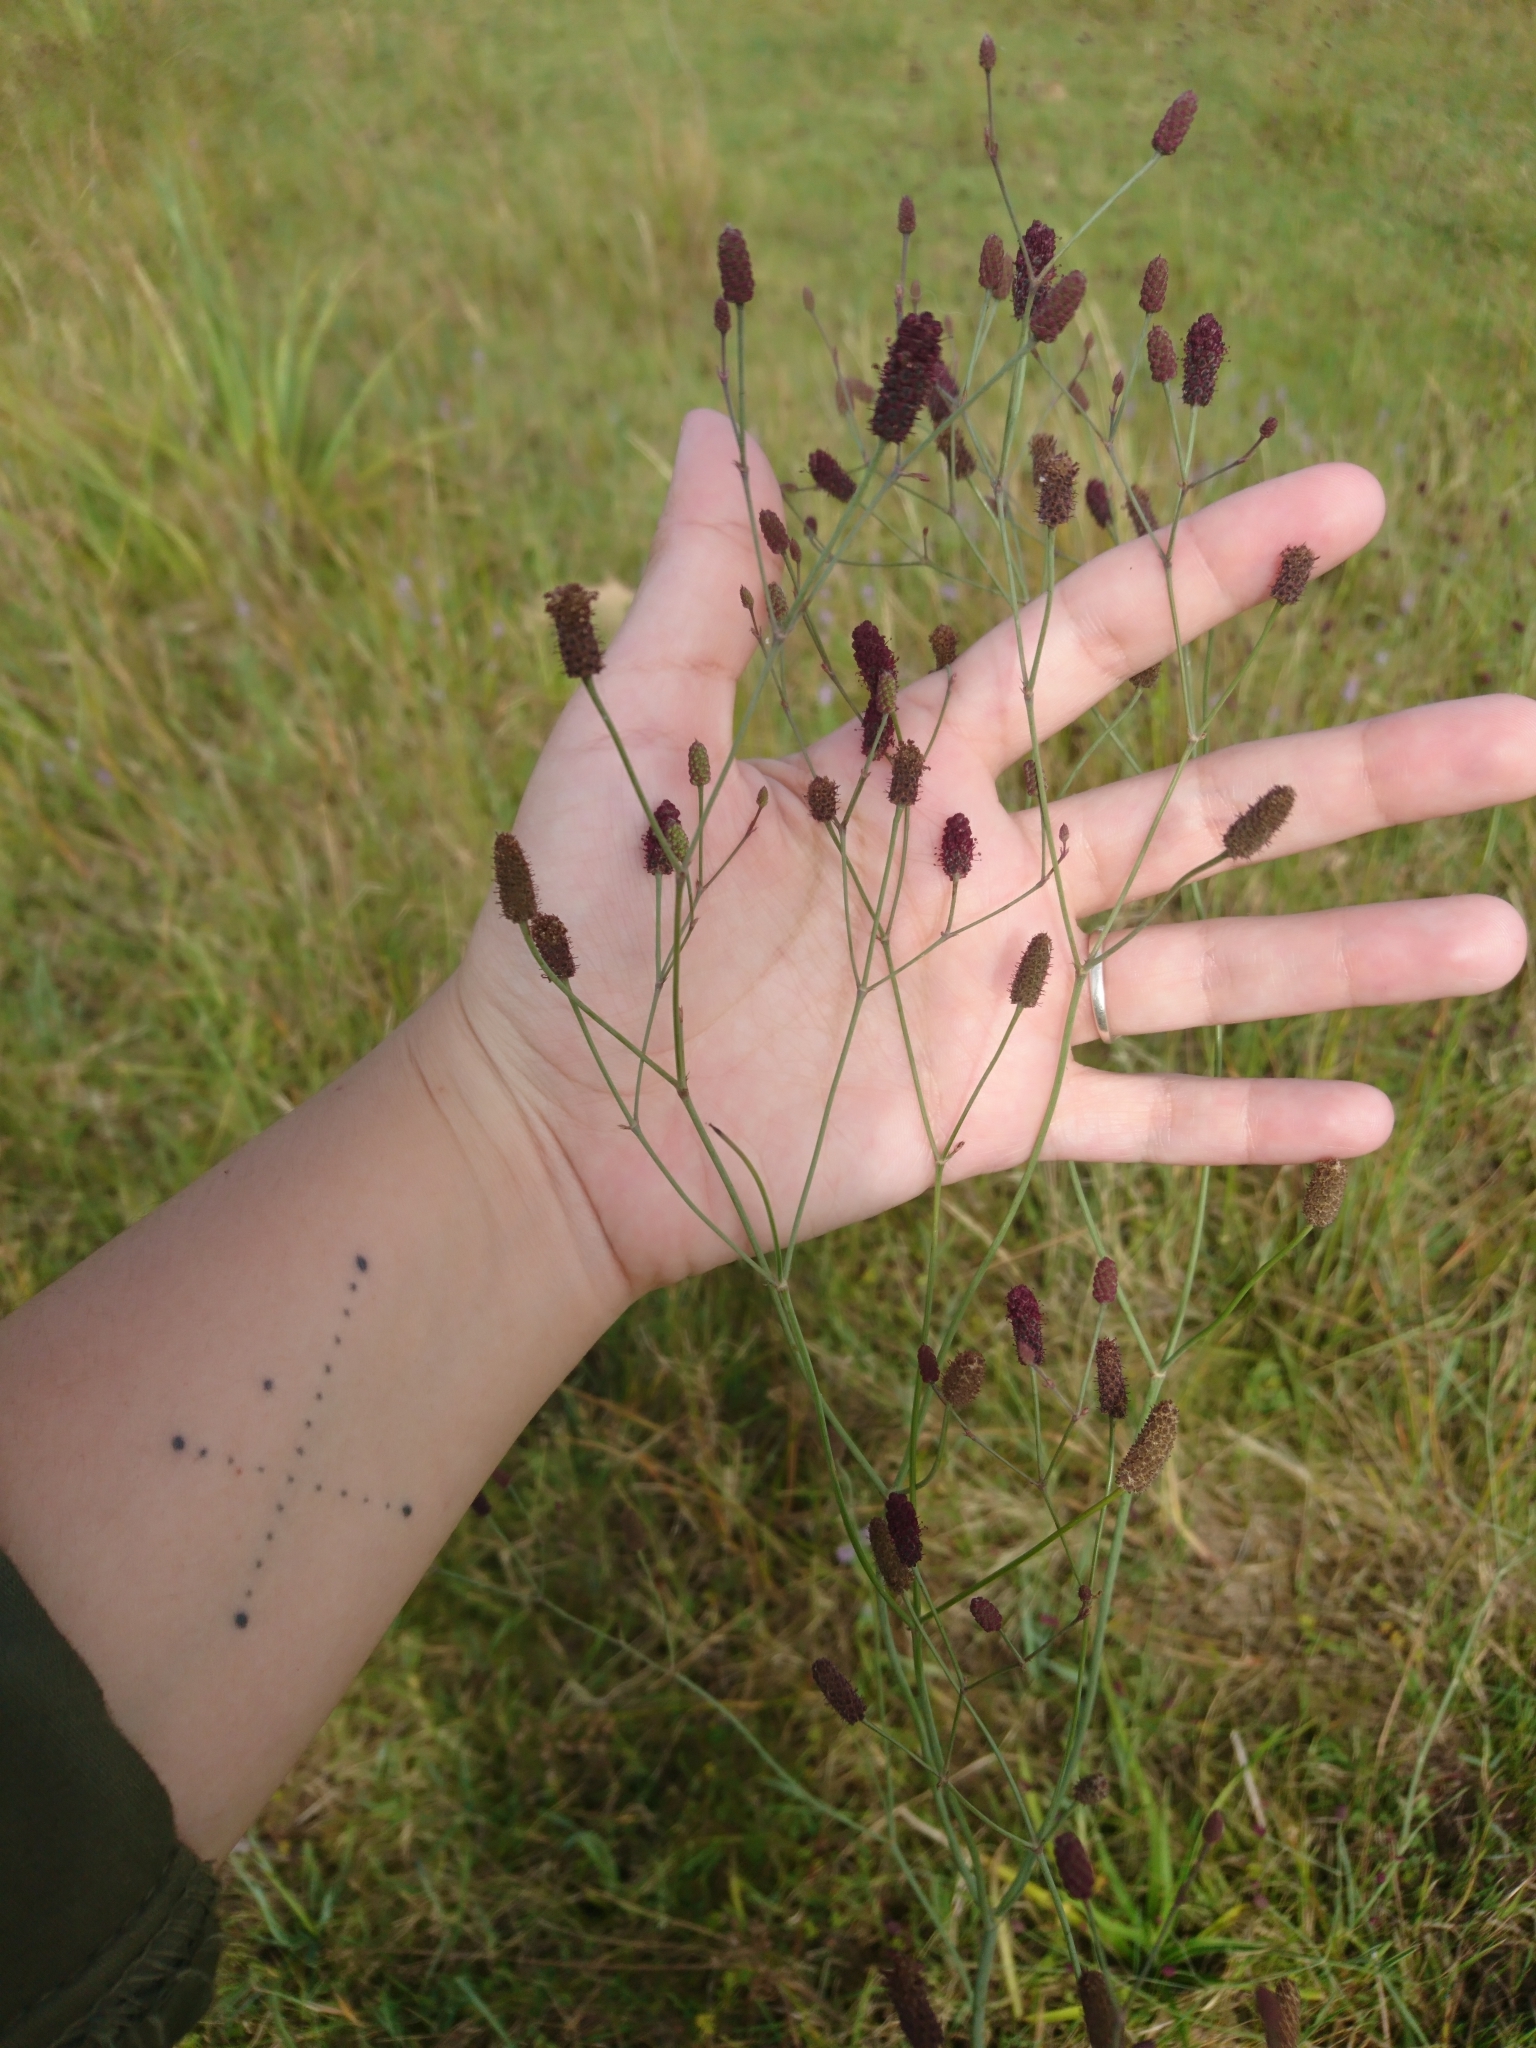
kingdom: Plantae
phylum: Tracheophyta
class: Magnoliopsida
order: Apiales
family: Apiaceae
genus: Eryngium
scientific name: Eryngium ebracteatum
